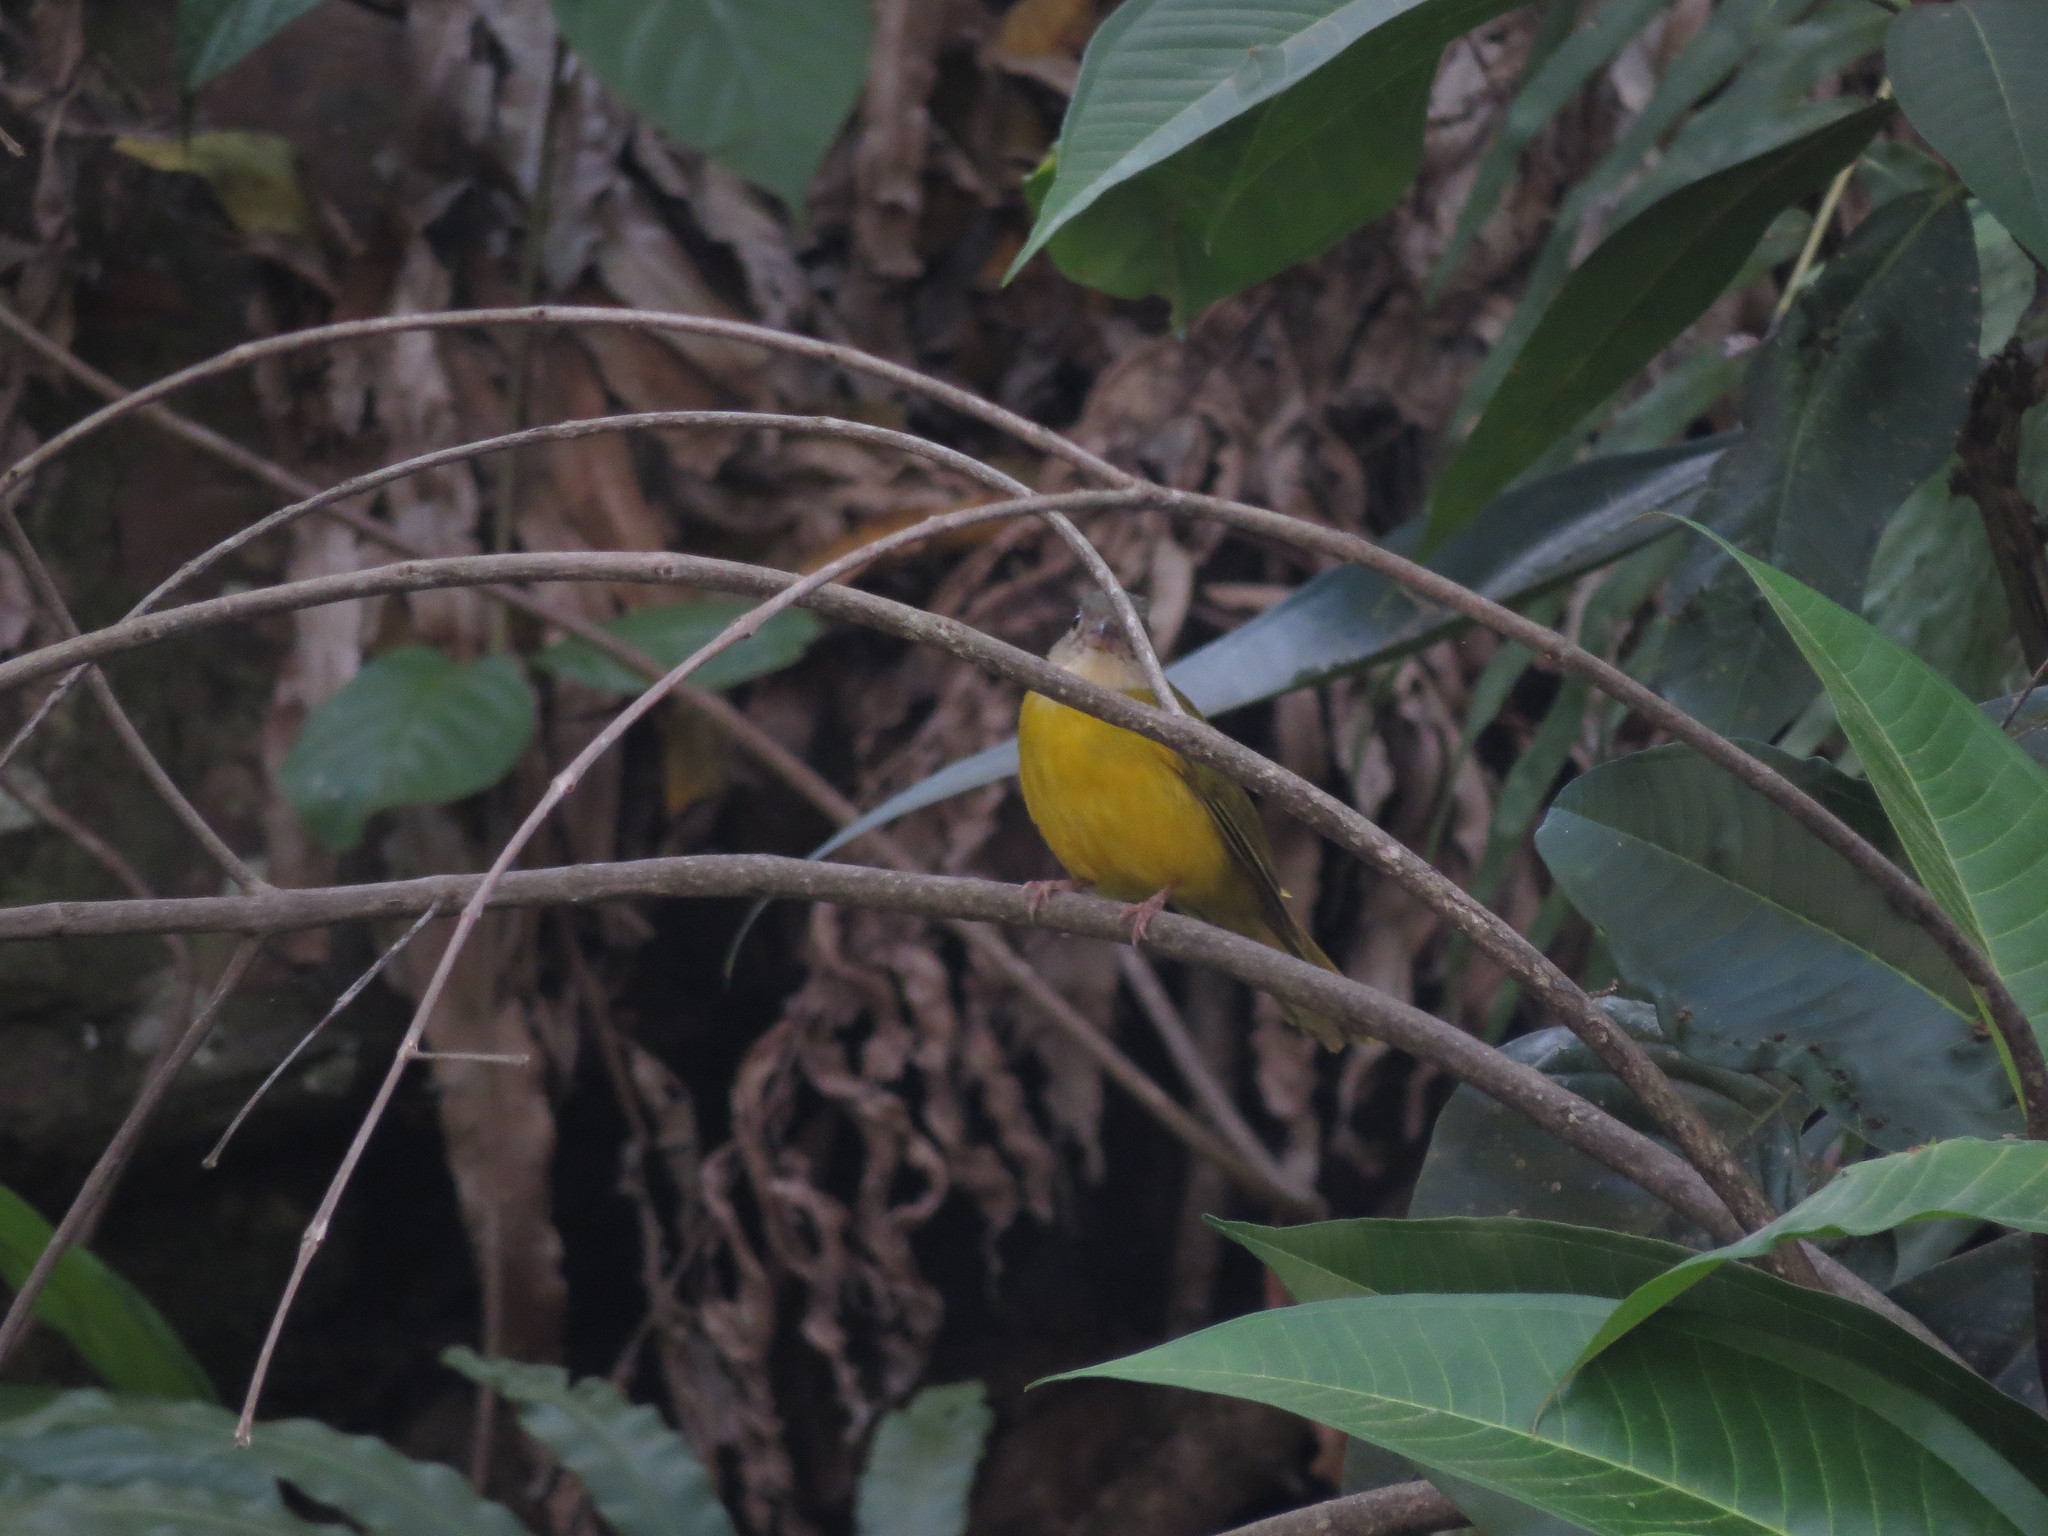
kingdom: Animalia
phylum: Chordata
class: Aves
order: Passeriformes
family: Thraupidae
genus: Eucometis
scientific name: Eucometis penicillata
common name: Grey-headed tanager
